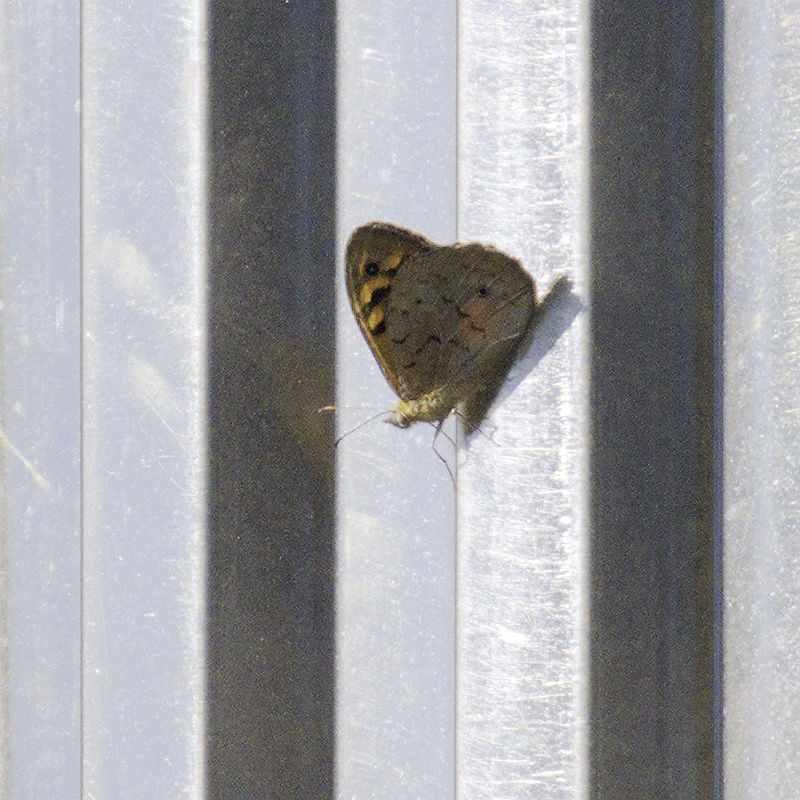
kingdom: Animalia
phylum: Arthropoda
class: Insecta
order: Lepidoptera
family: Nymphalidae
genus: Heteronympha
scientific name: Heteronympha merope
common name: Common brown
